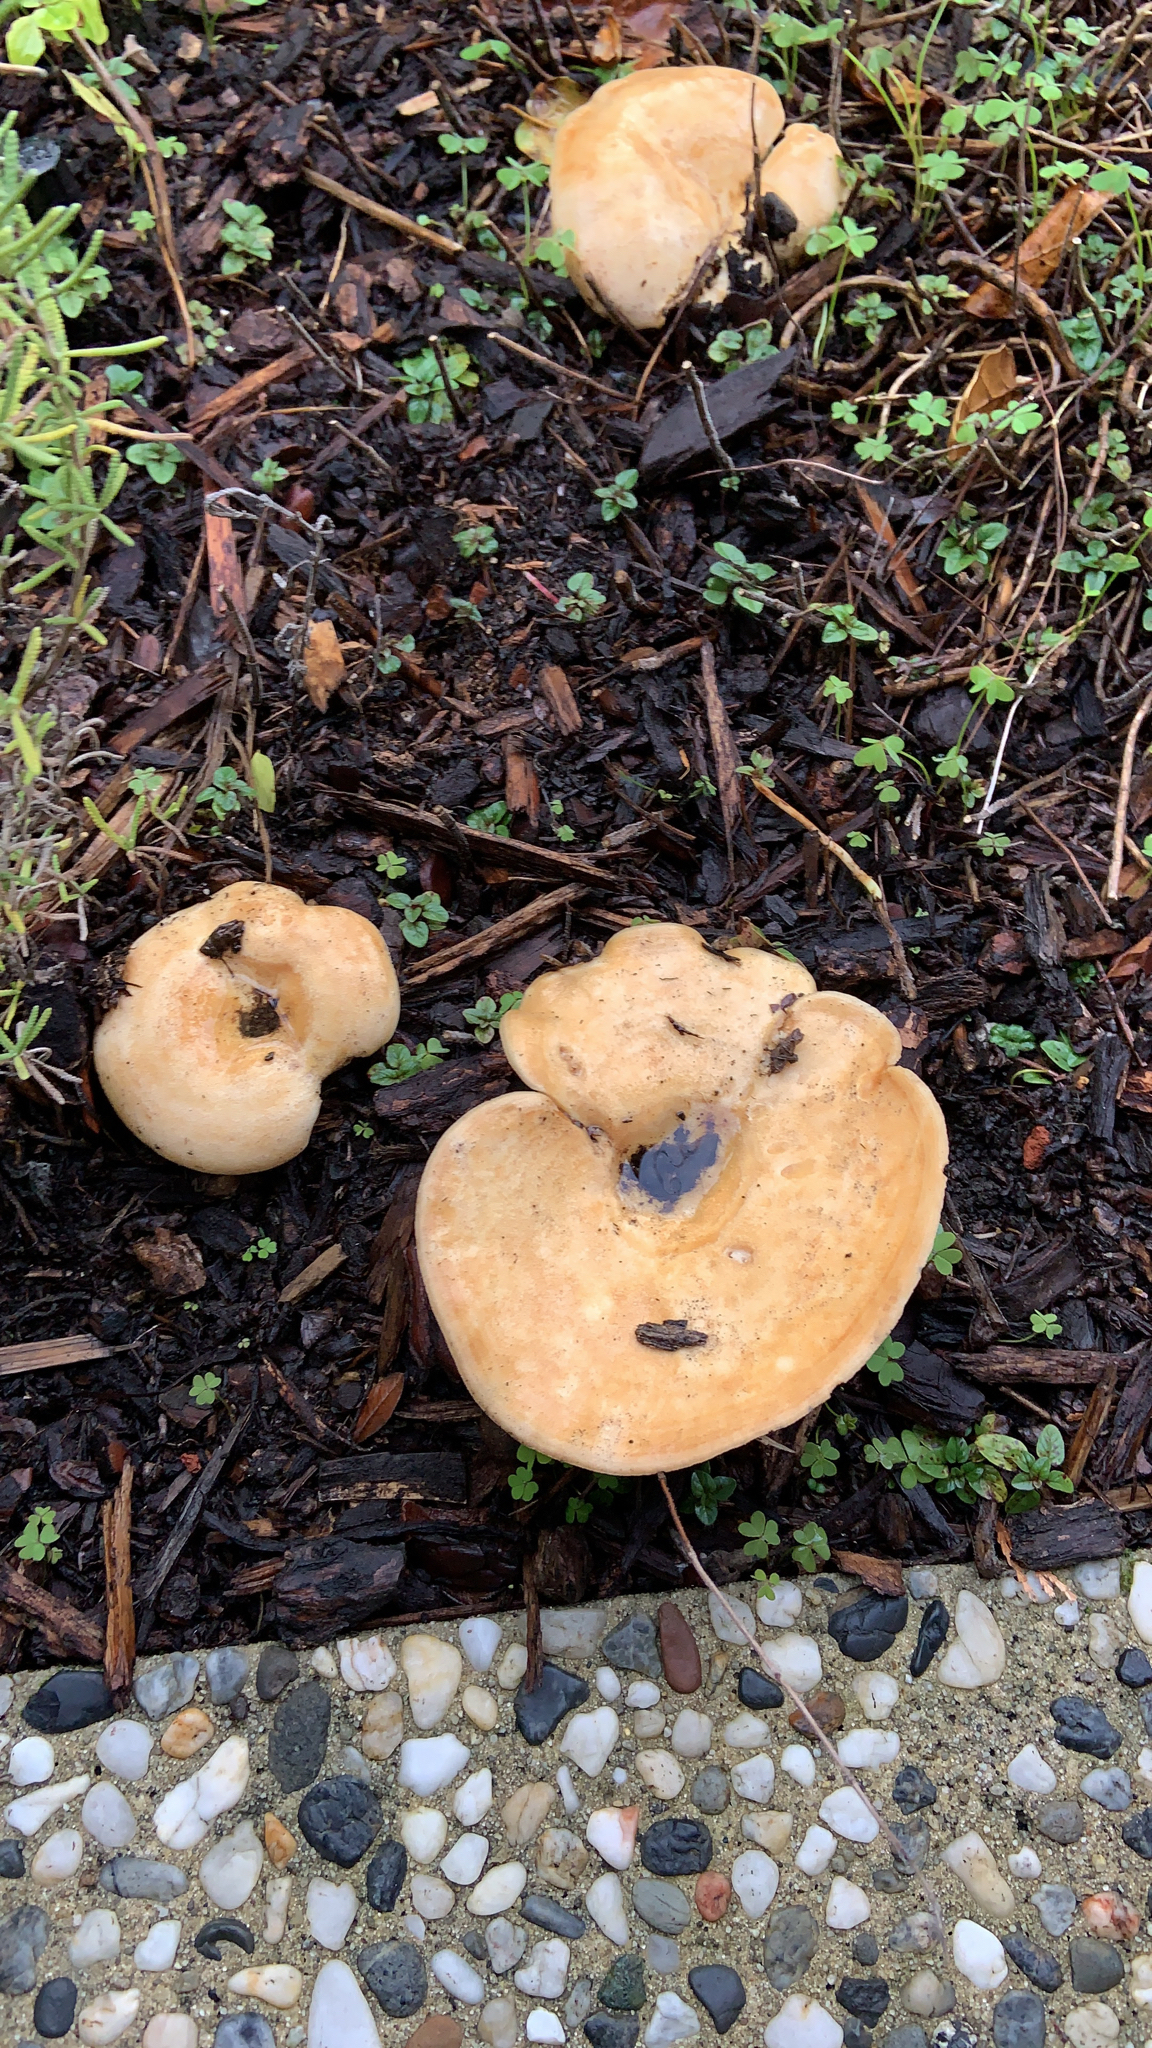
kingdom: Fungi
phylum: Basidiomycota
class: Agaricomycetes
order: Russulales
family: Russulaceae
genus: Lactarius
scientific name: Lactarius alnicola
